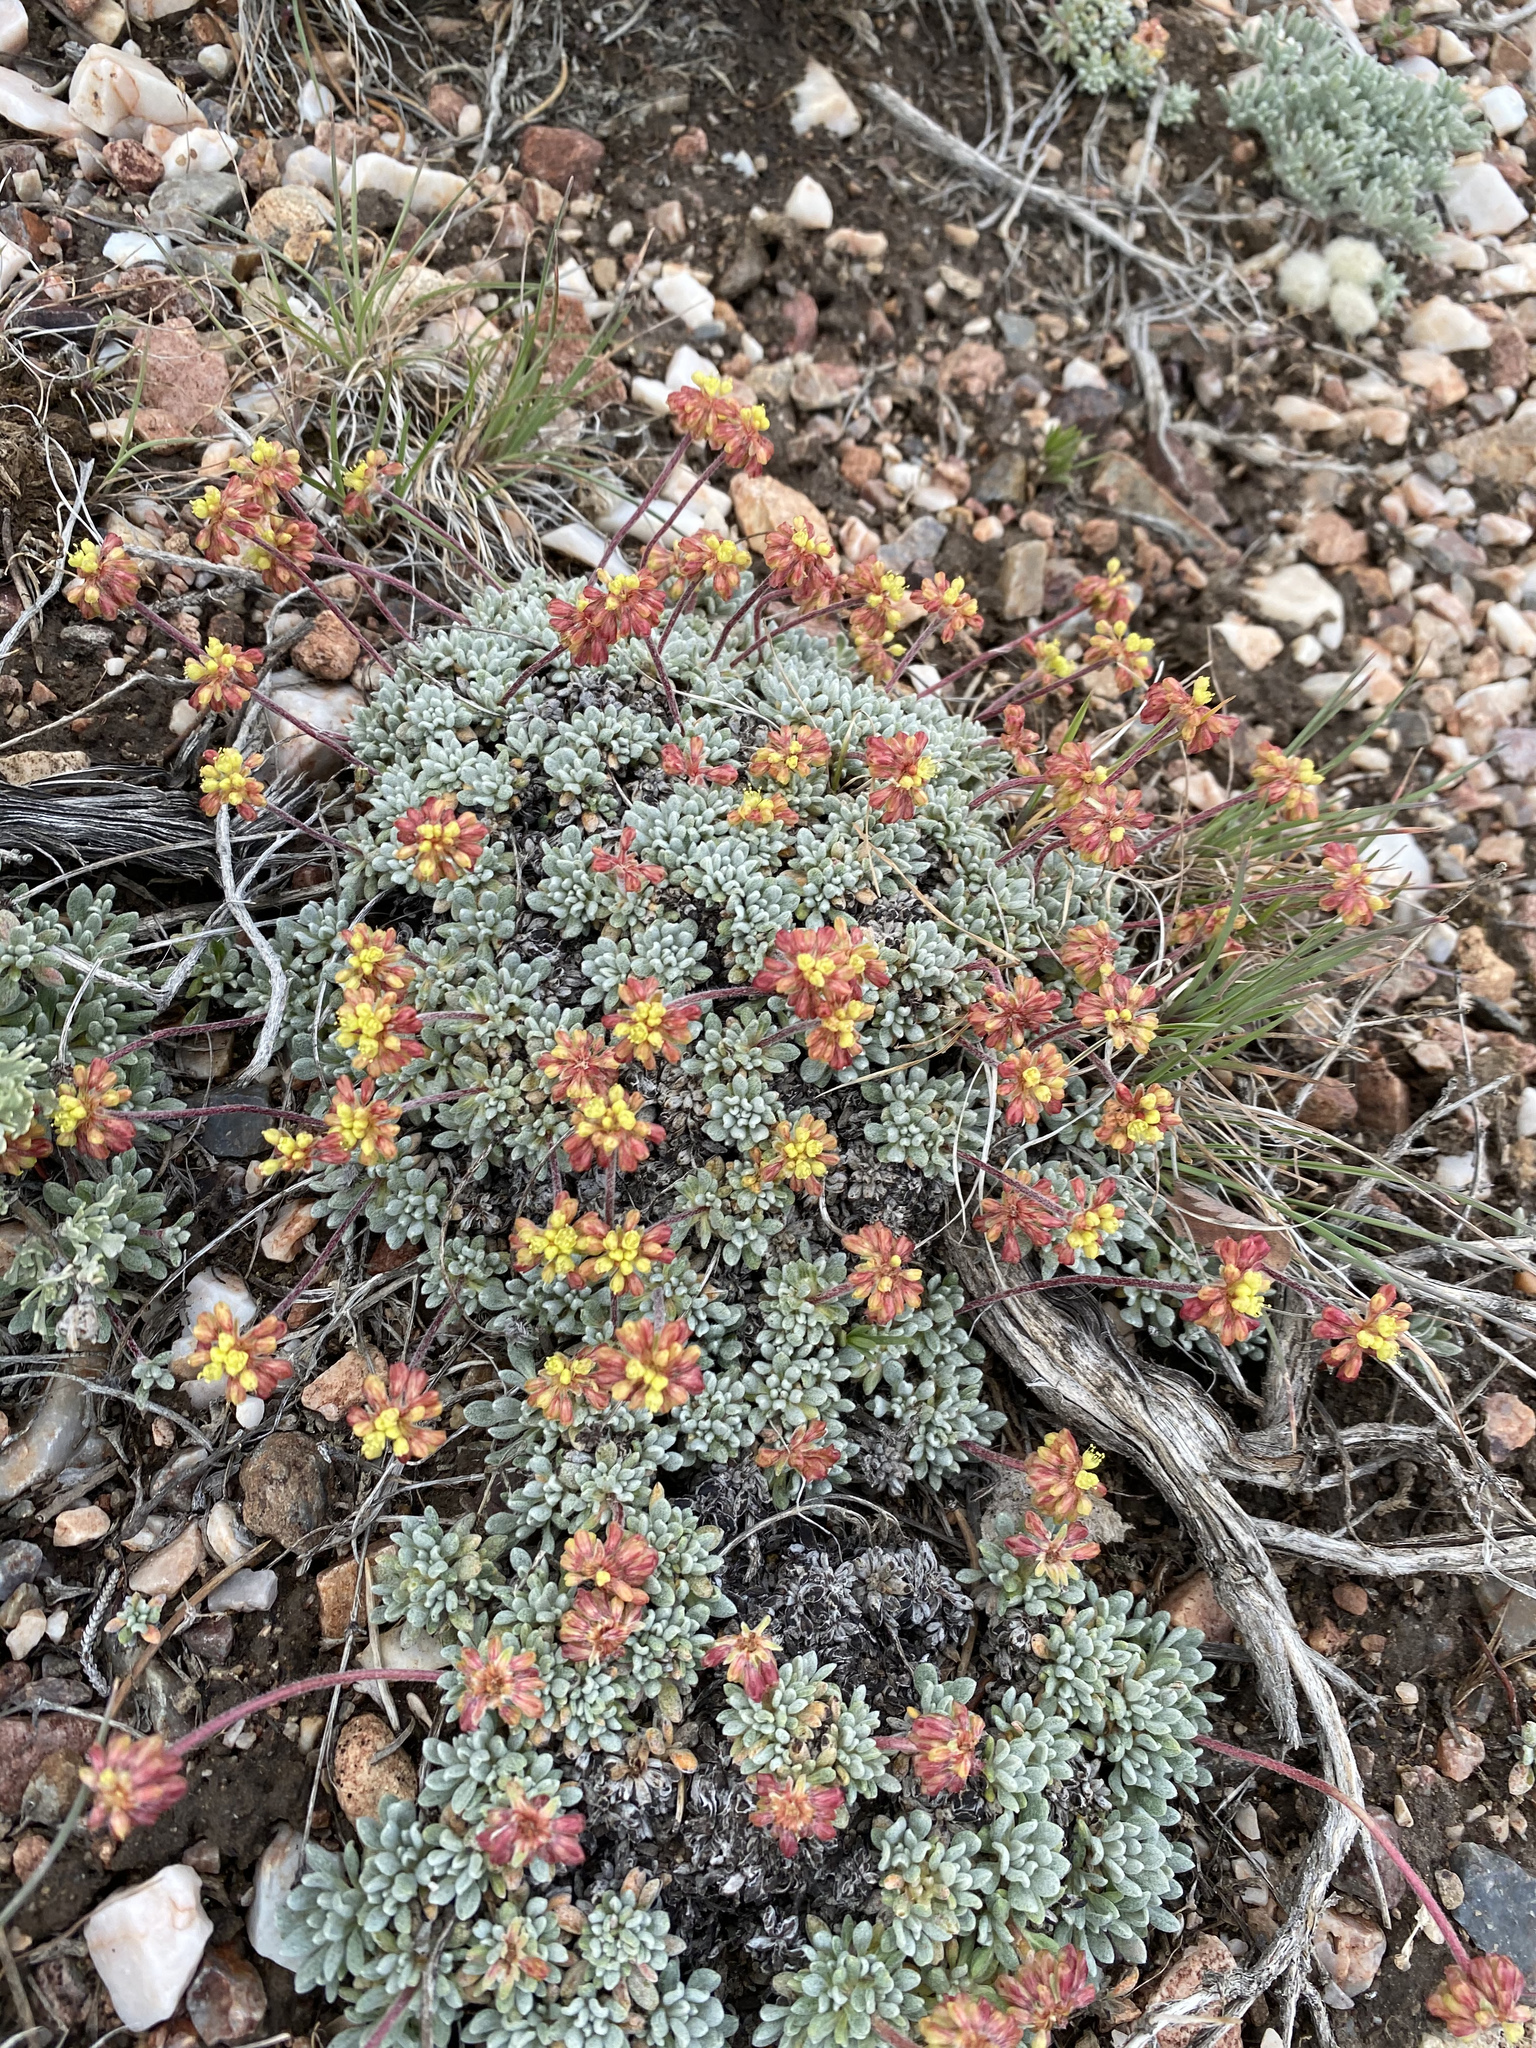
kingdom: Plantae
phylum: Tracheophyta
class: Magnoliopsida
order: Caryophyllales
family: Polygonaceae
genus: Eriogonum
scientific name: Eriogonum caespitosum
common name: Matted wild buckwheat
